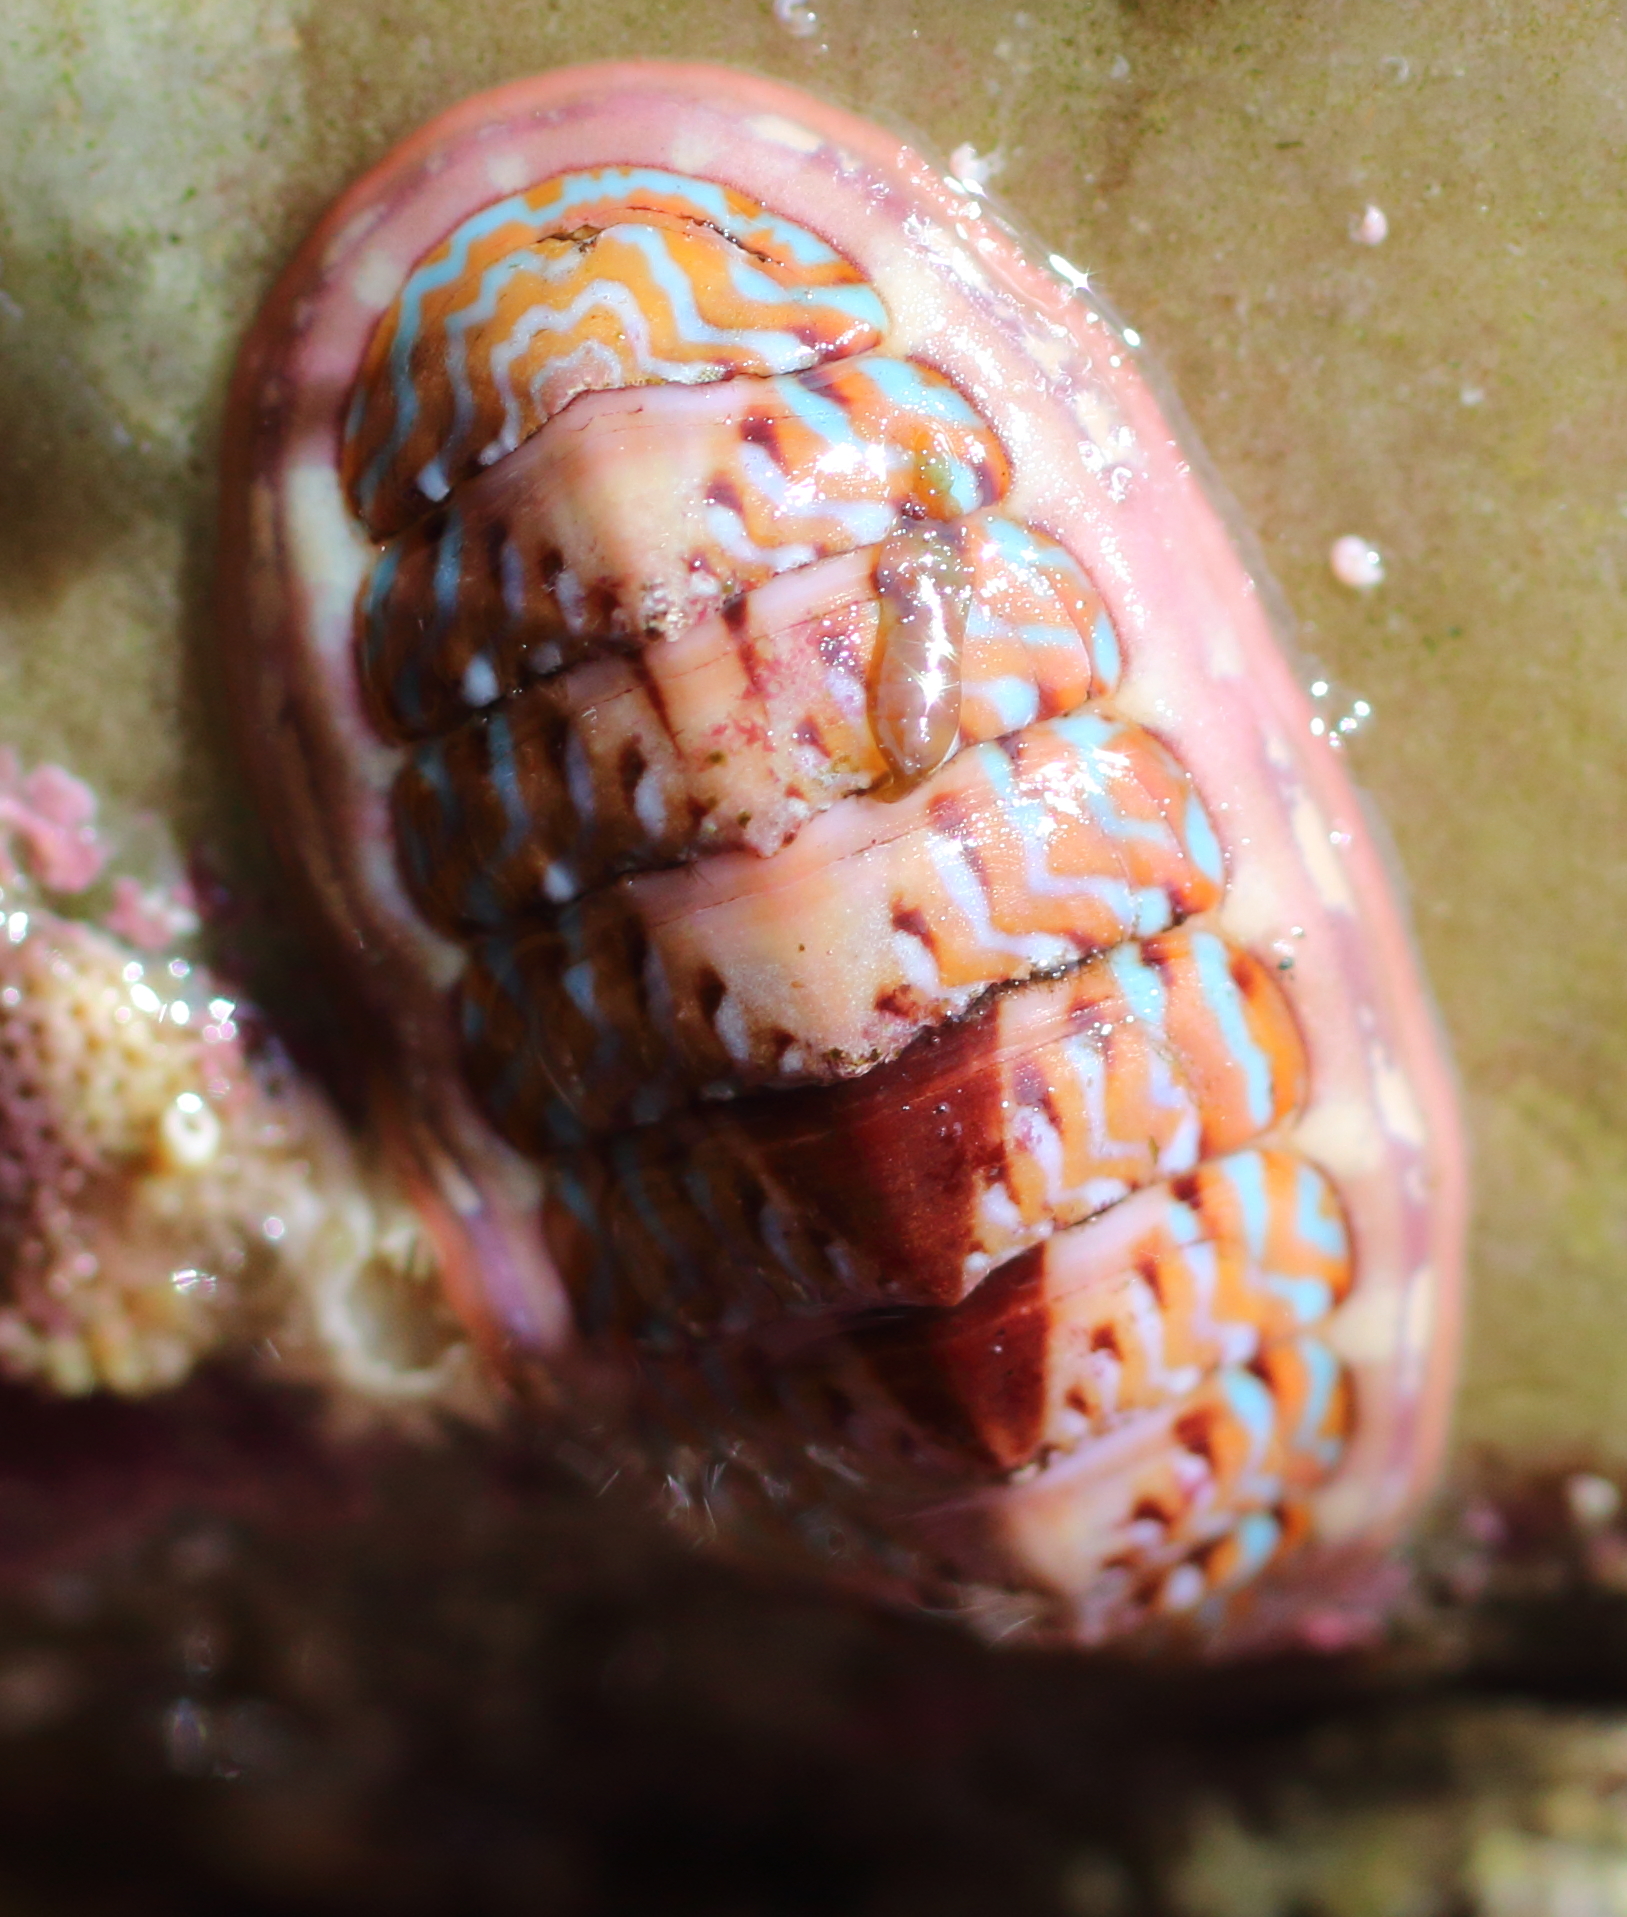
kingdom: Animalia
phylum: Mollusca
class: Polyplacophora
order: Chitonida
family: Tonicellidae
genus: Tonicella
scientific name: Tonicella undocaerulea
